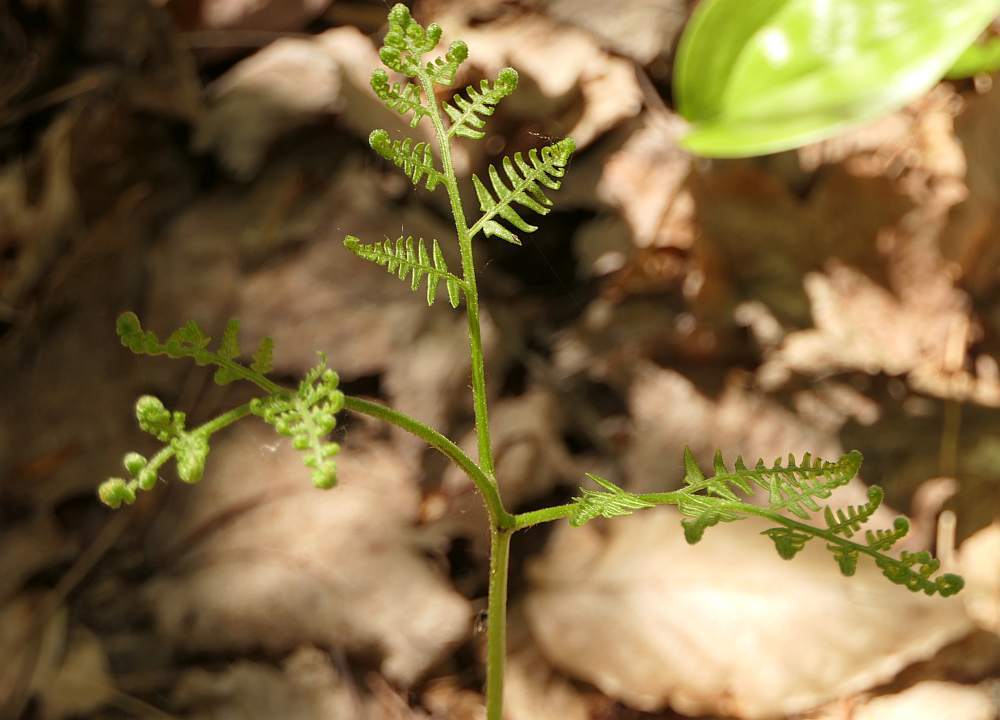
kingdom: Plantae
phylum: Tracheophyta
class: Polypodiopsida
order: Polypodiales
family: Dennstaedtiaceae
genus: Pteridium
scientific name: Pteridium aquilinum
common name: Bracken
